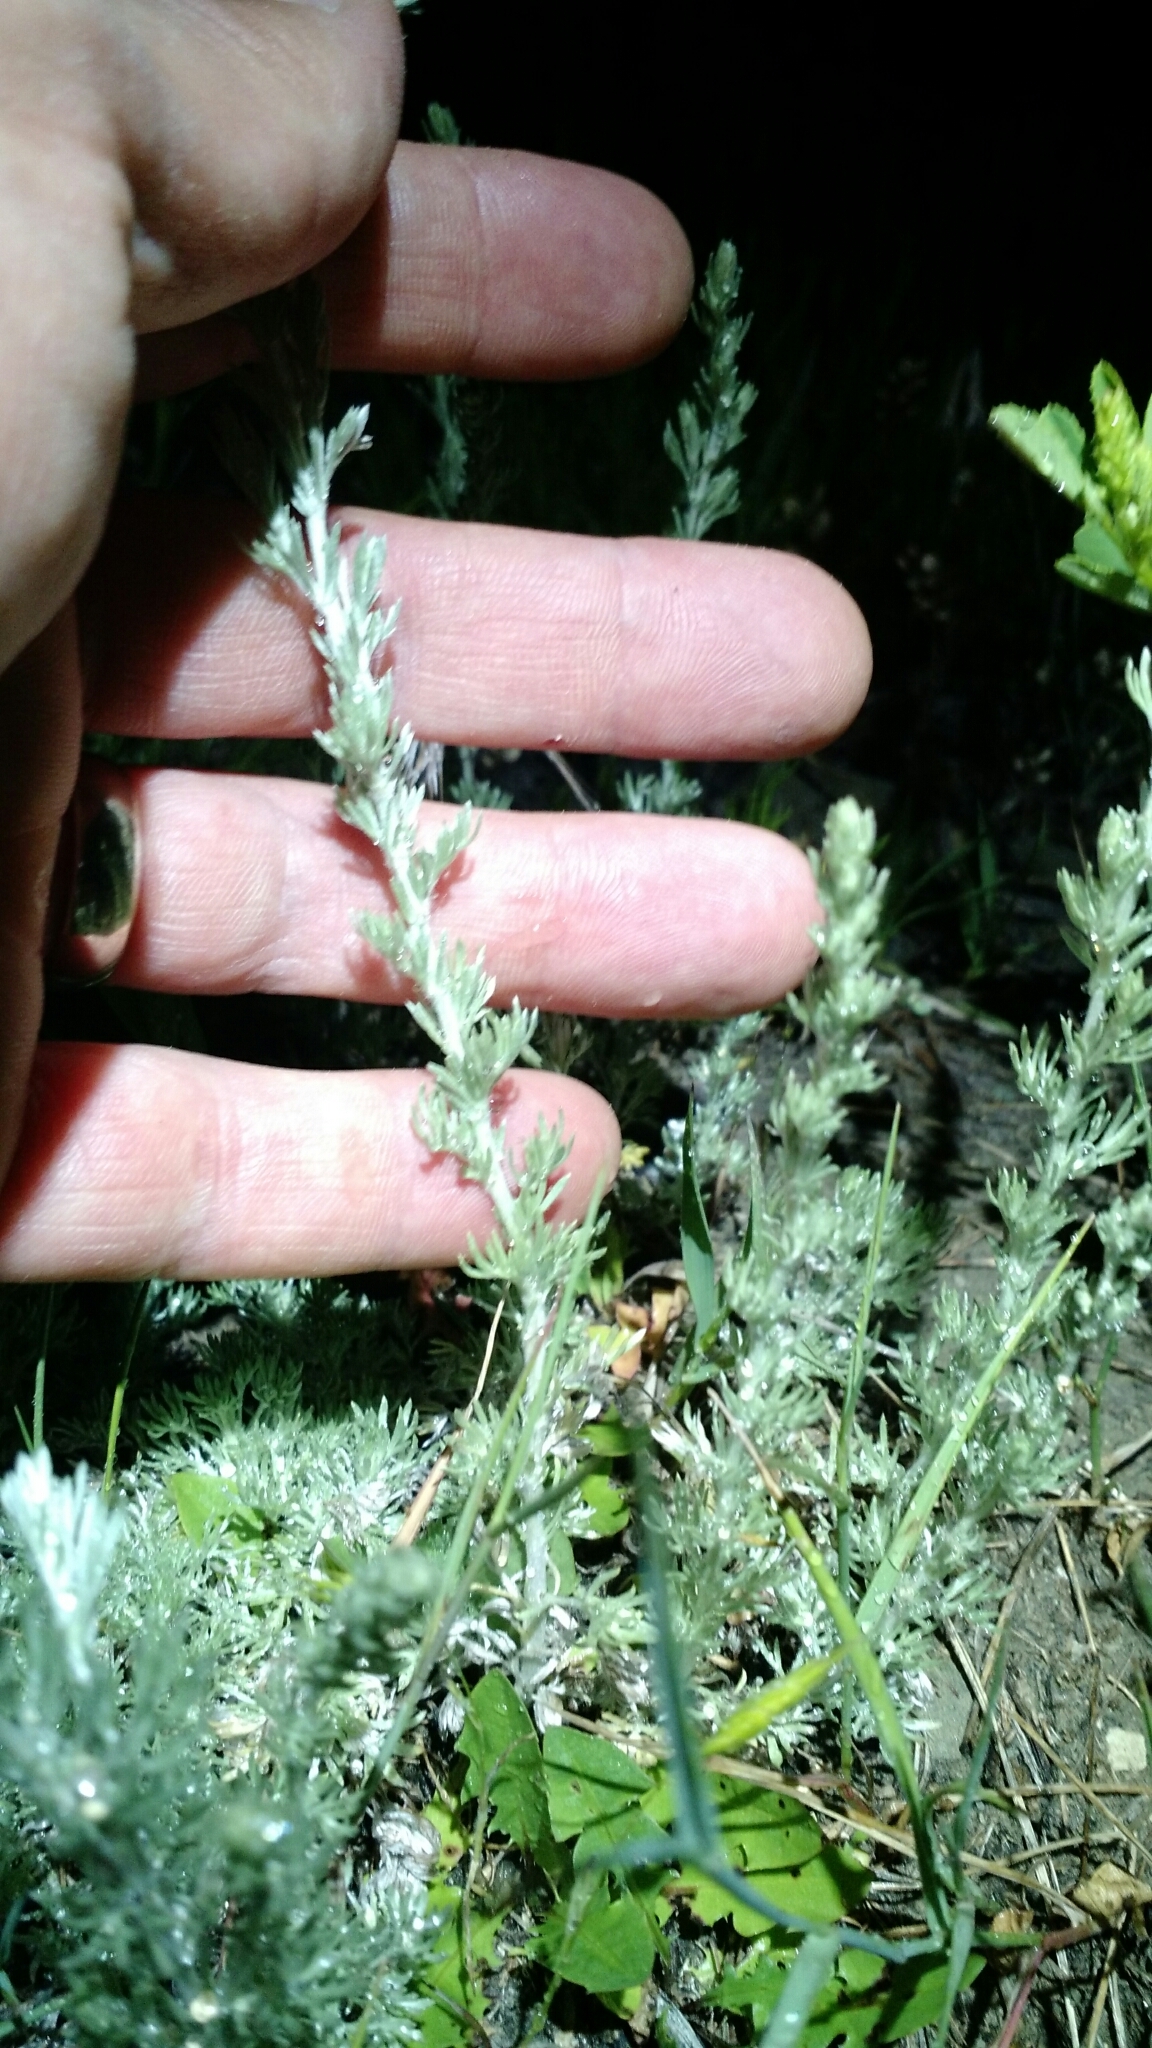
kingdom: Plantae
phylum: Tracheophyta
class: Magnoliopsida
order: Asterales
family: Asteraceae
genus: Artemisia
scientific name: Artemisia frigida
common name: Prairie sagewort
